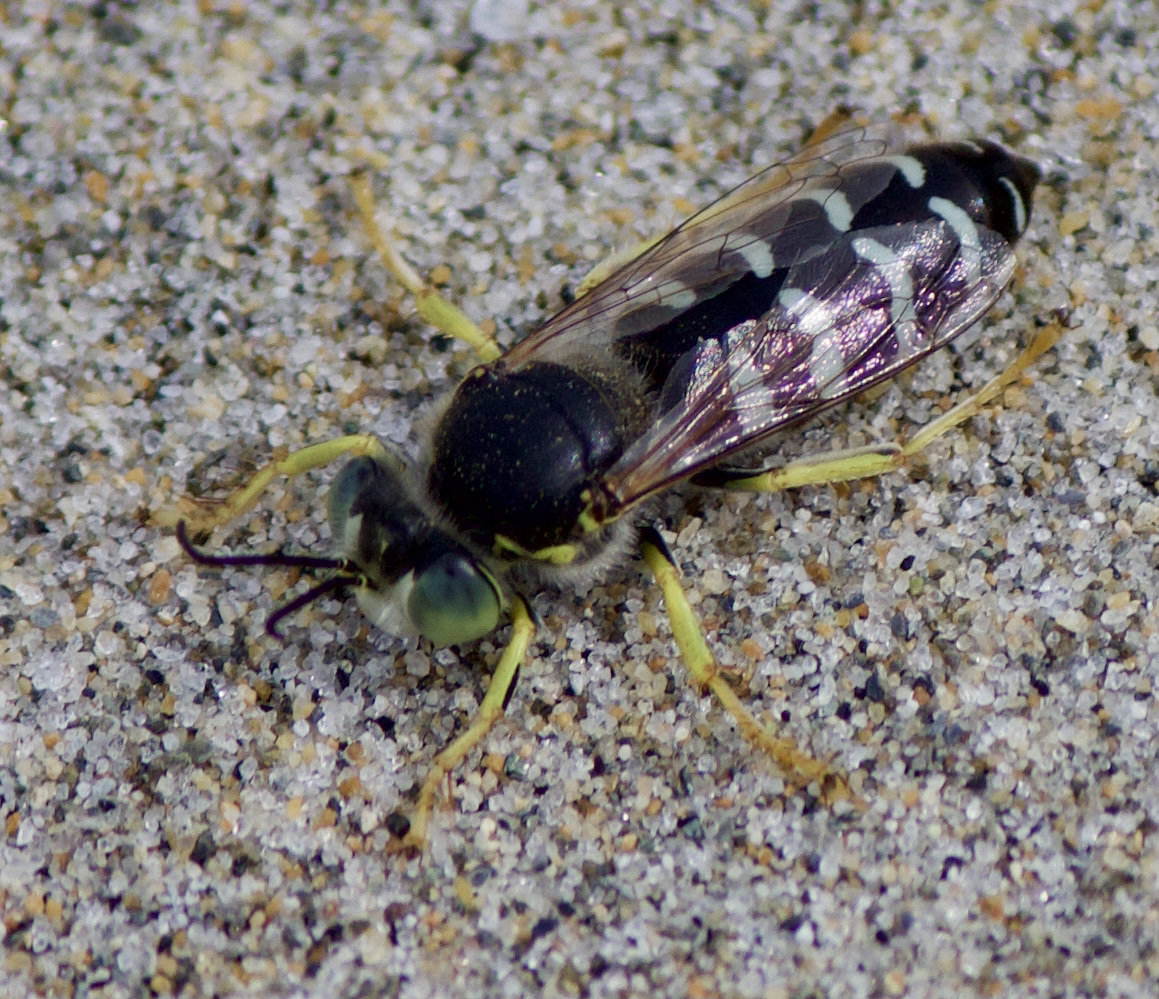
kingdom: Animalia
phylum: Arthropoda
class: Insecta
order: Hymenoptera
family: Crabronidae
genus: Bembix
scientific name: Bembix americana
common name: American sand wasp
